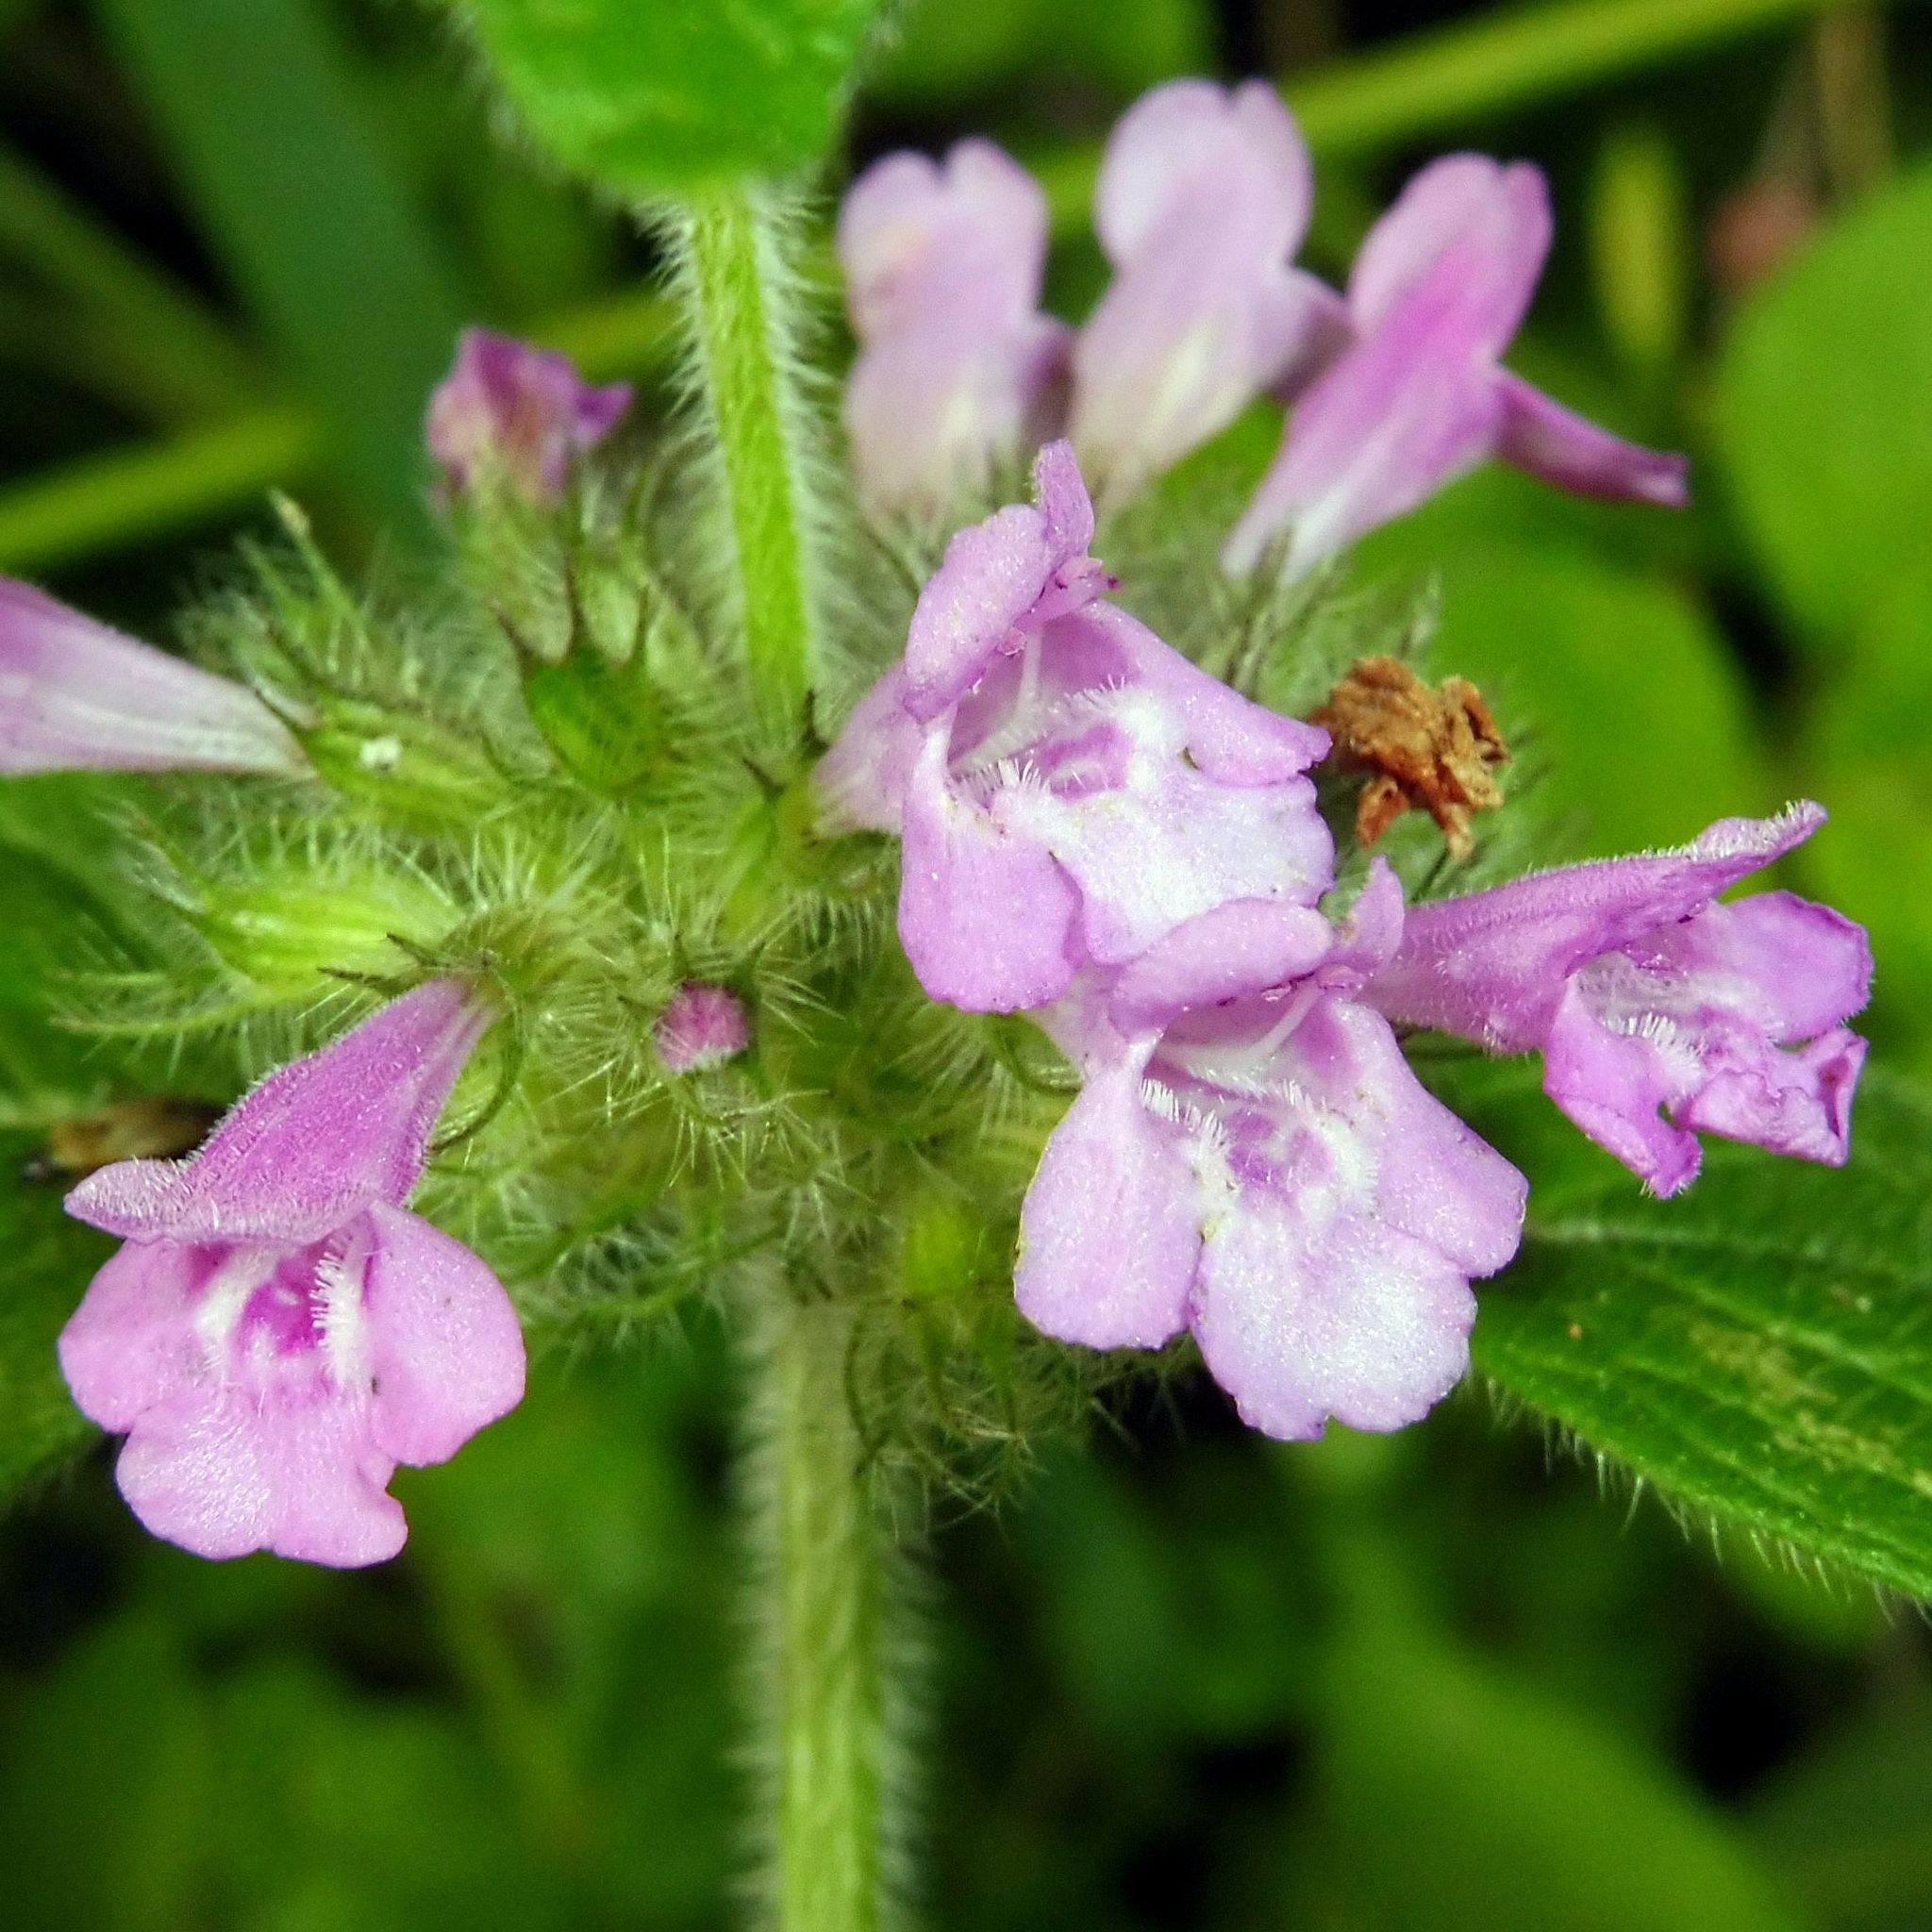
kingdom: Plantae
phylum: Tracheophyta
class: Magnoliopsida
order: Lamiales
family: Lamiaceae
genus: Clinopodium
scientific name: Clinopodium vulgare
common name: Wild basil
